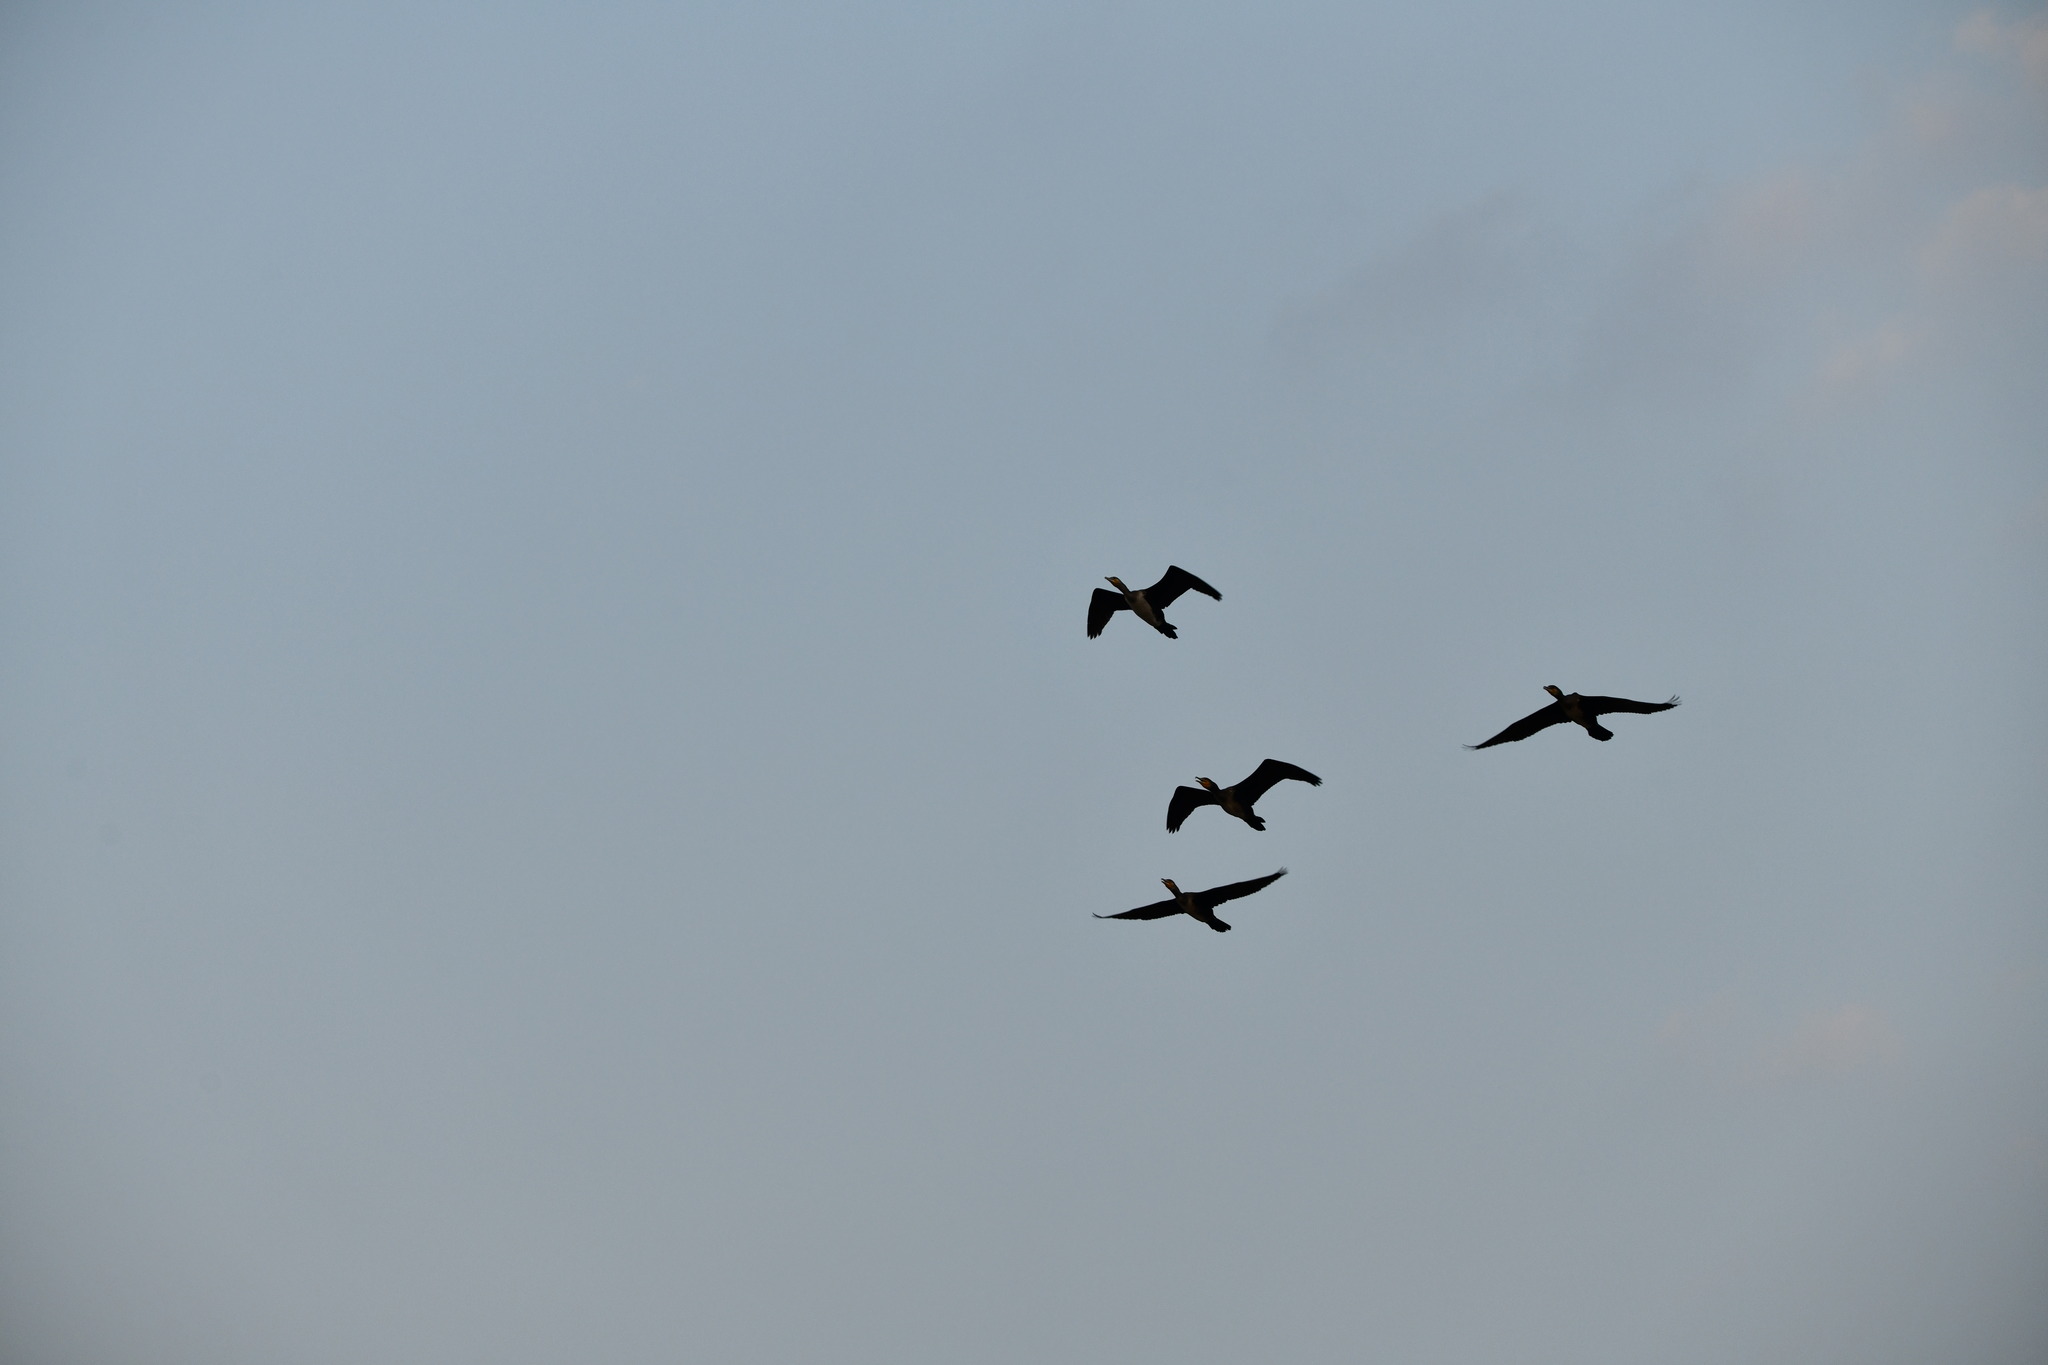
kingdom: Animalia
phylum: Chordata
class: Aves
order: Suliformes
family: Phalacrocoracidae
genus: Phalacrocorax
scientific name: Phalacrocorax carbo
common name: Great cormorant
